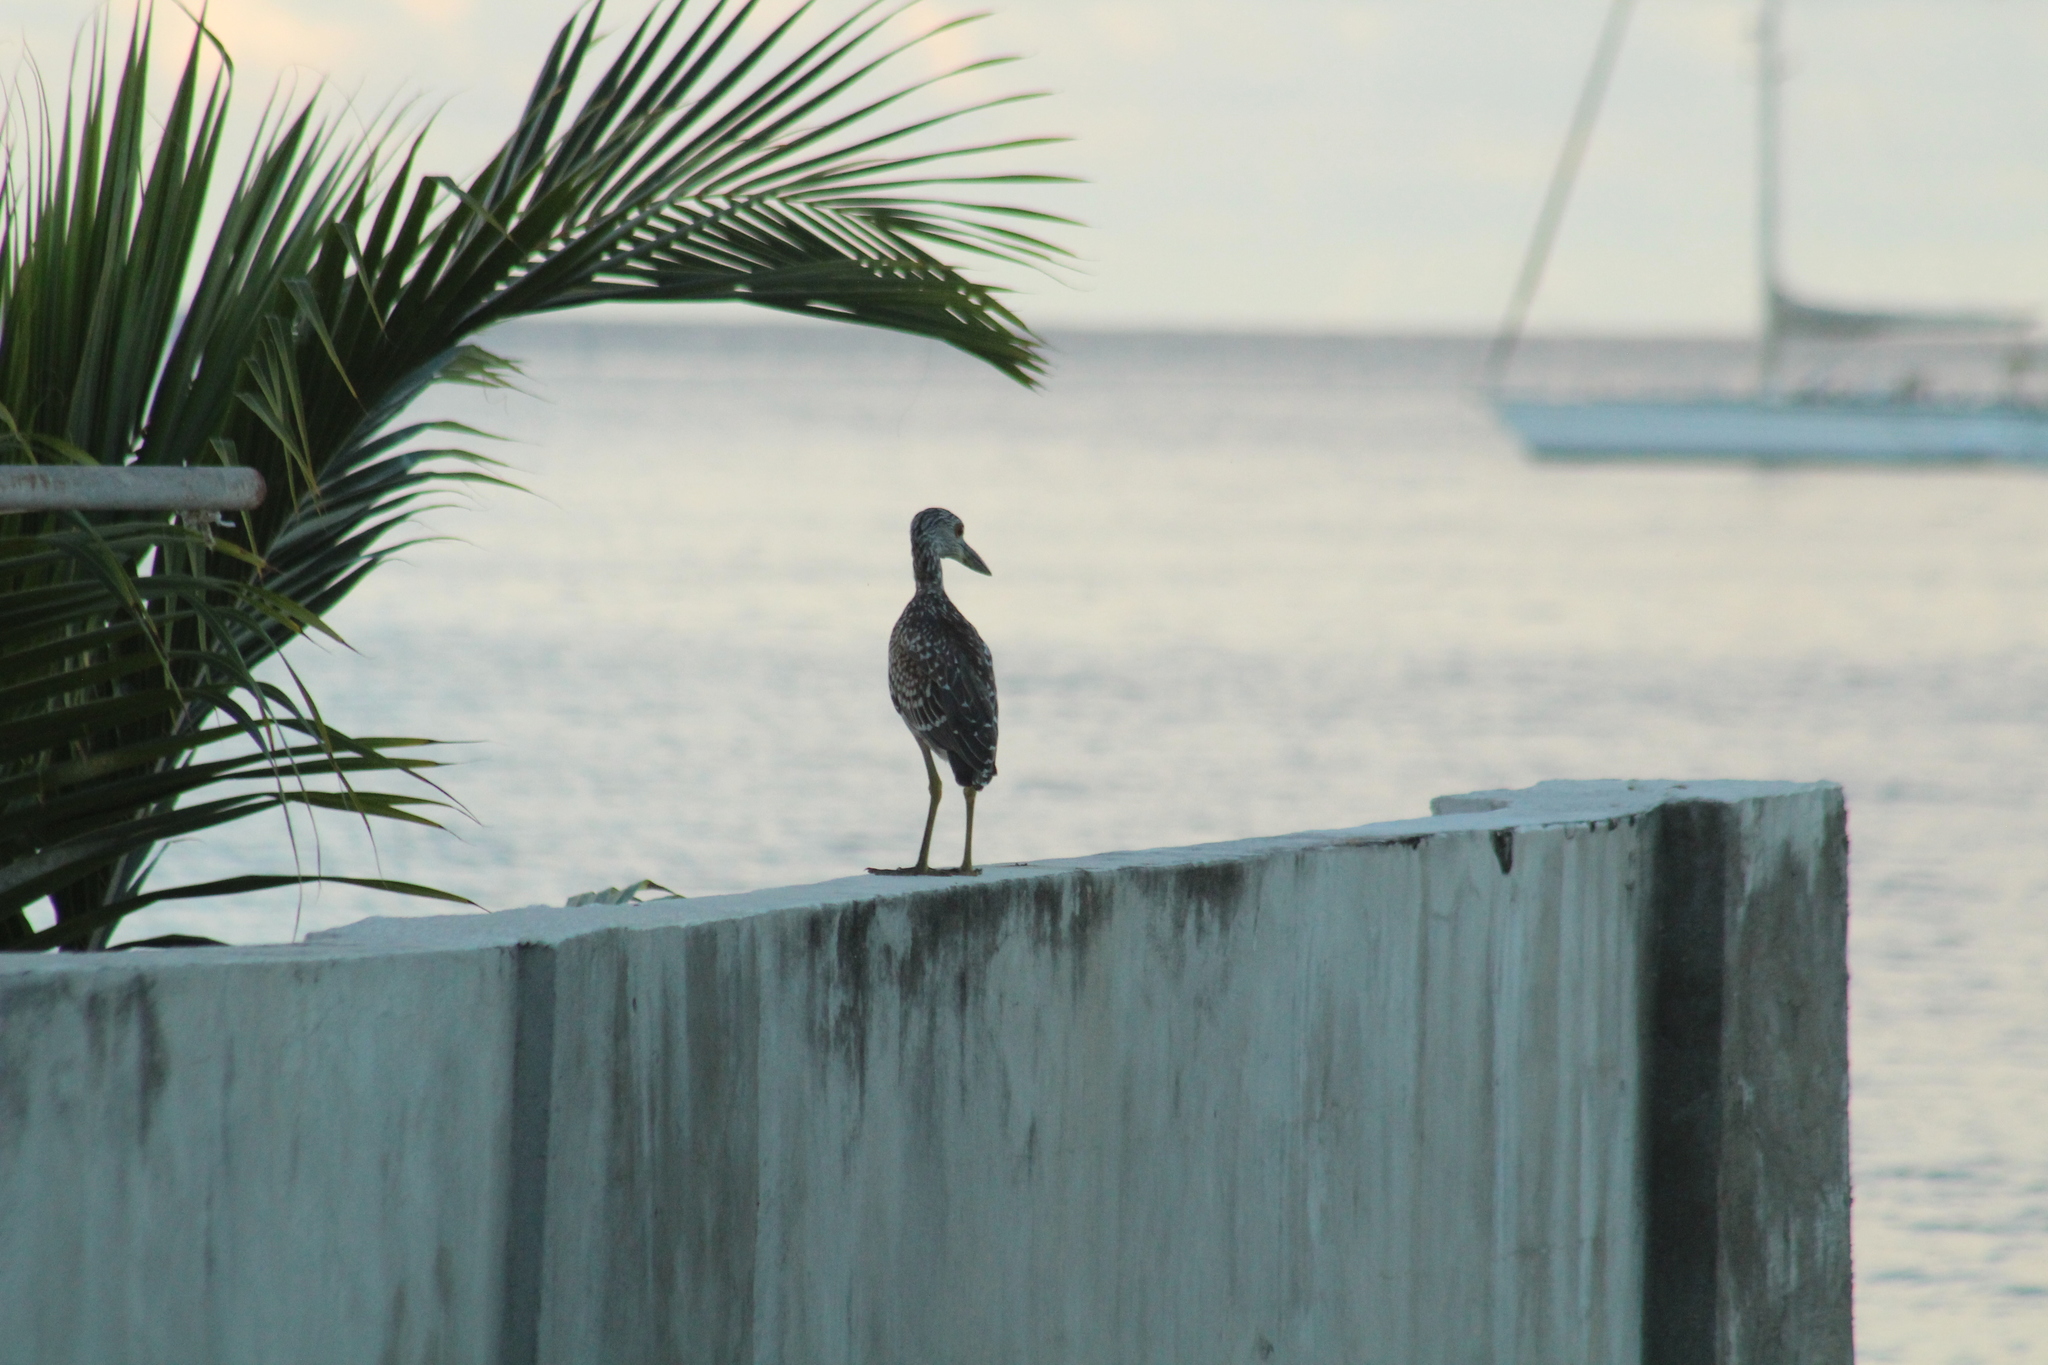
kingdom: Animalia
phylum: Chordata
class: Aves
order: Pelecaniformes
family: Ardeidae
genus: Nyctanassa
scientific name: Nyctanassa violacea
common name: Yellow-crowned night heron
